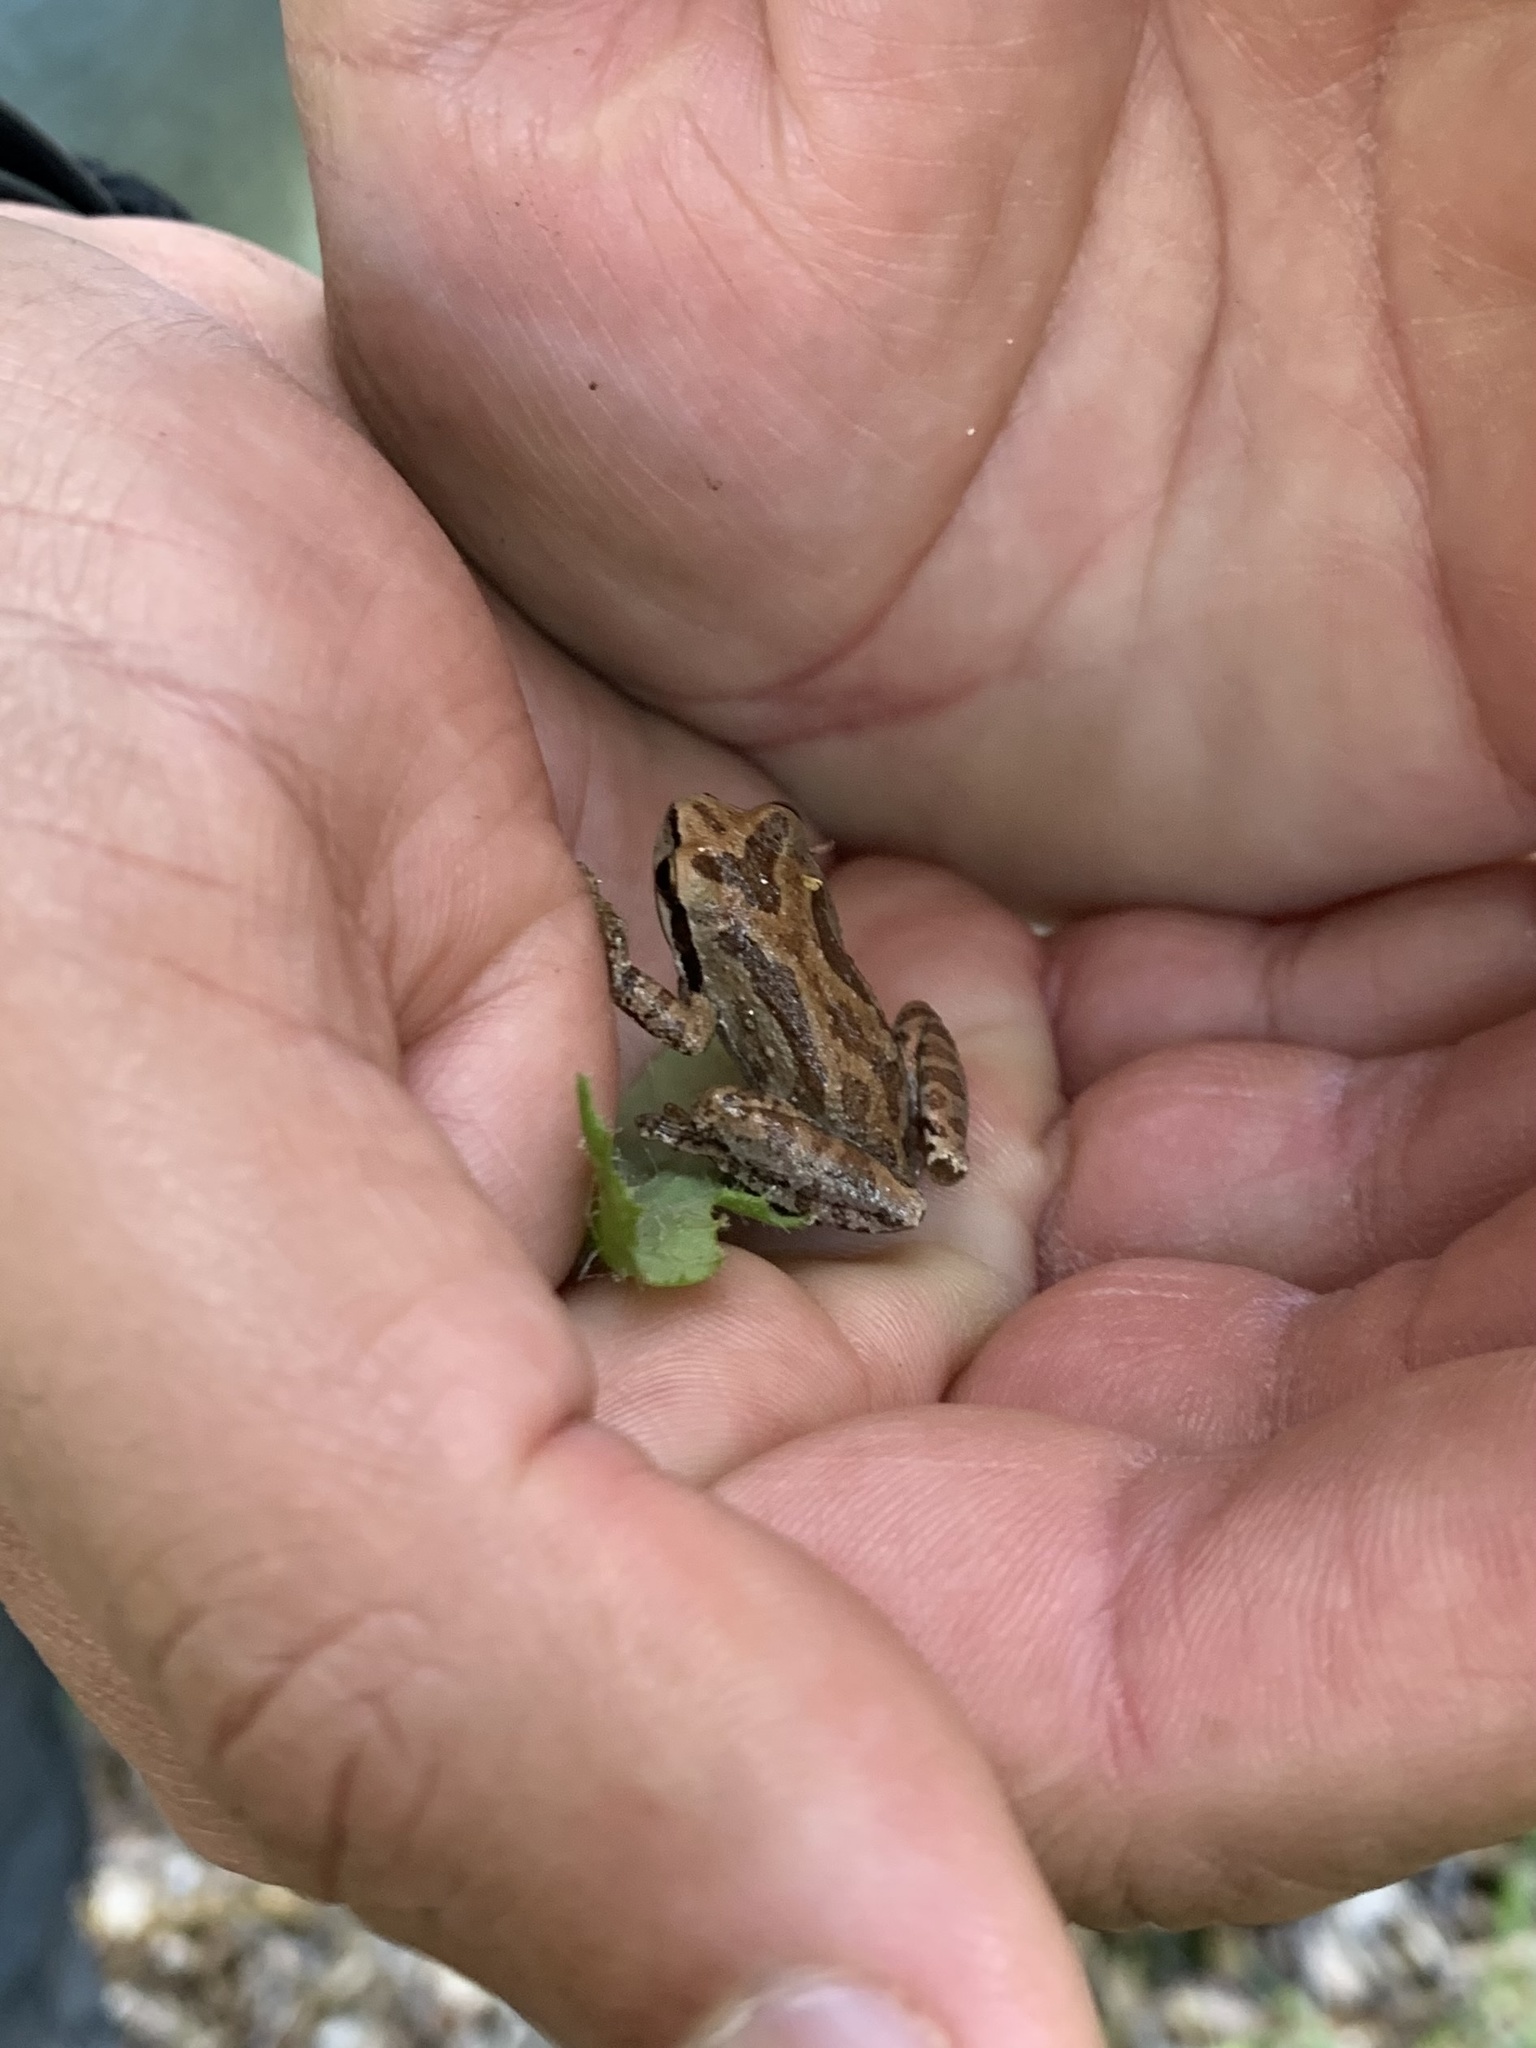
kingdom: Animalia
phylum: Chordata
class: Amphibia
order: Anura
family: Hylidae
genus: Pseudacris
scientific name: Pseudacris regilla
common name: Pacific chorus frog
